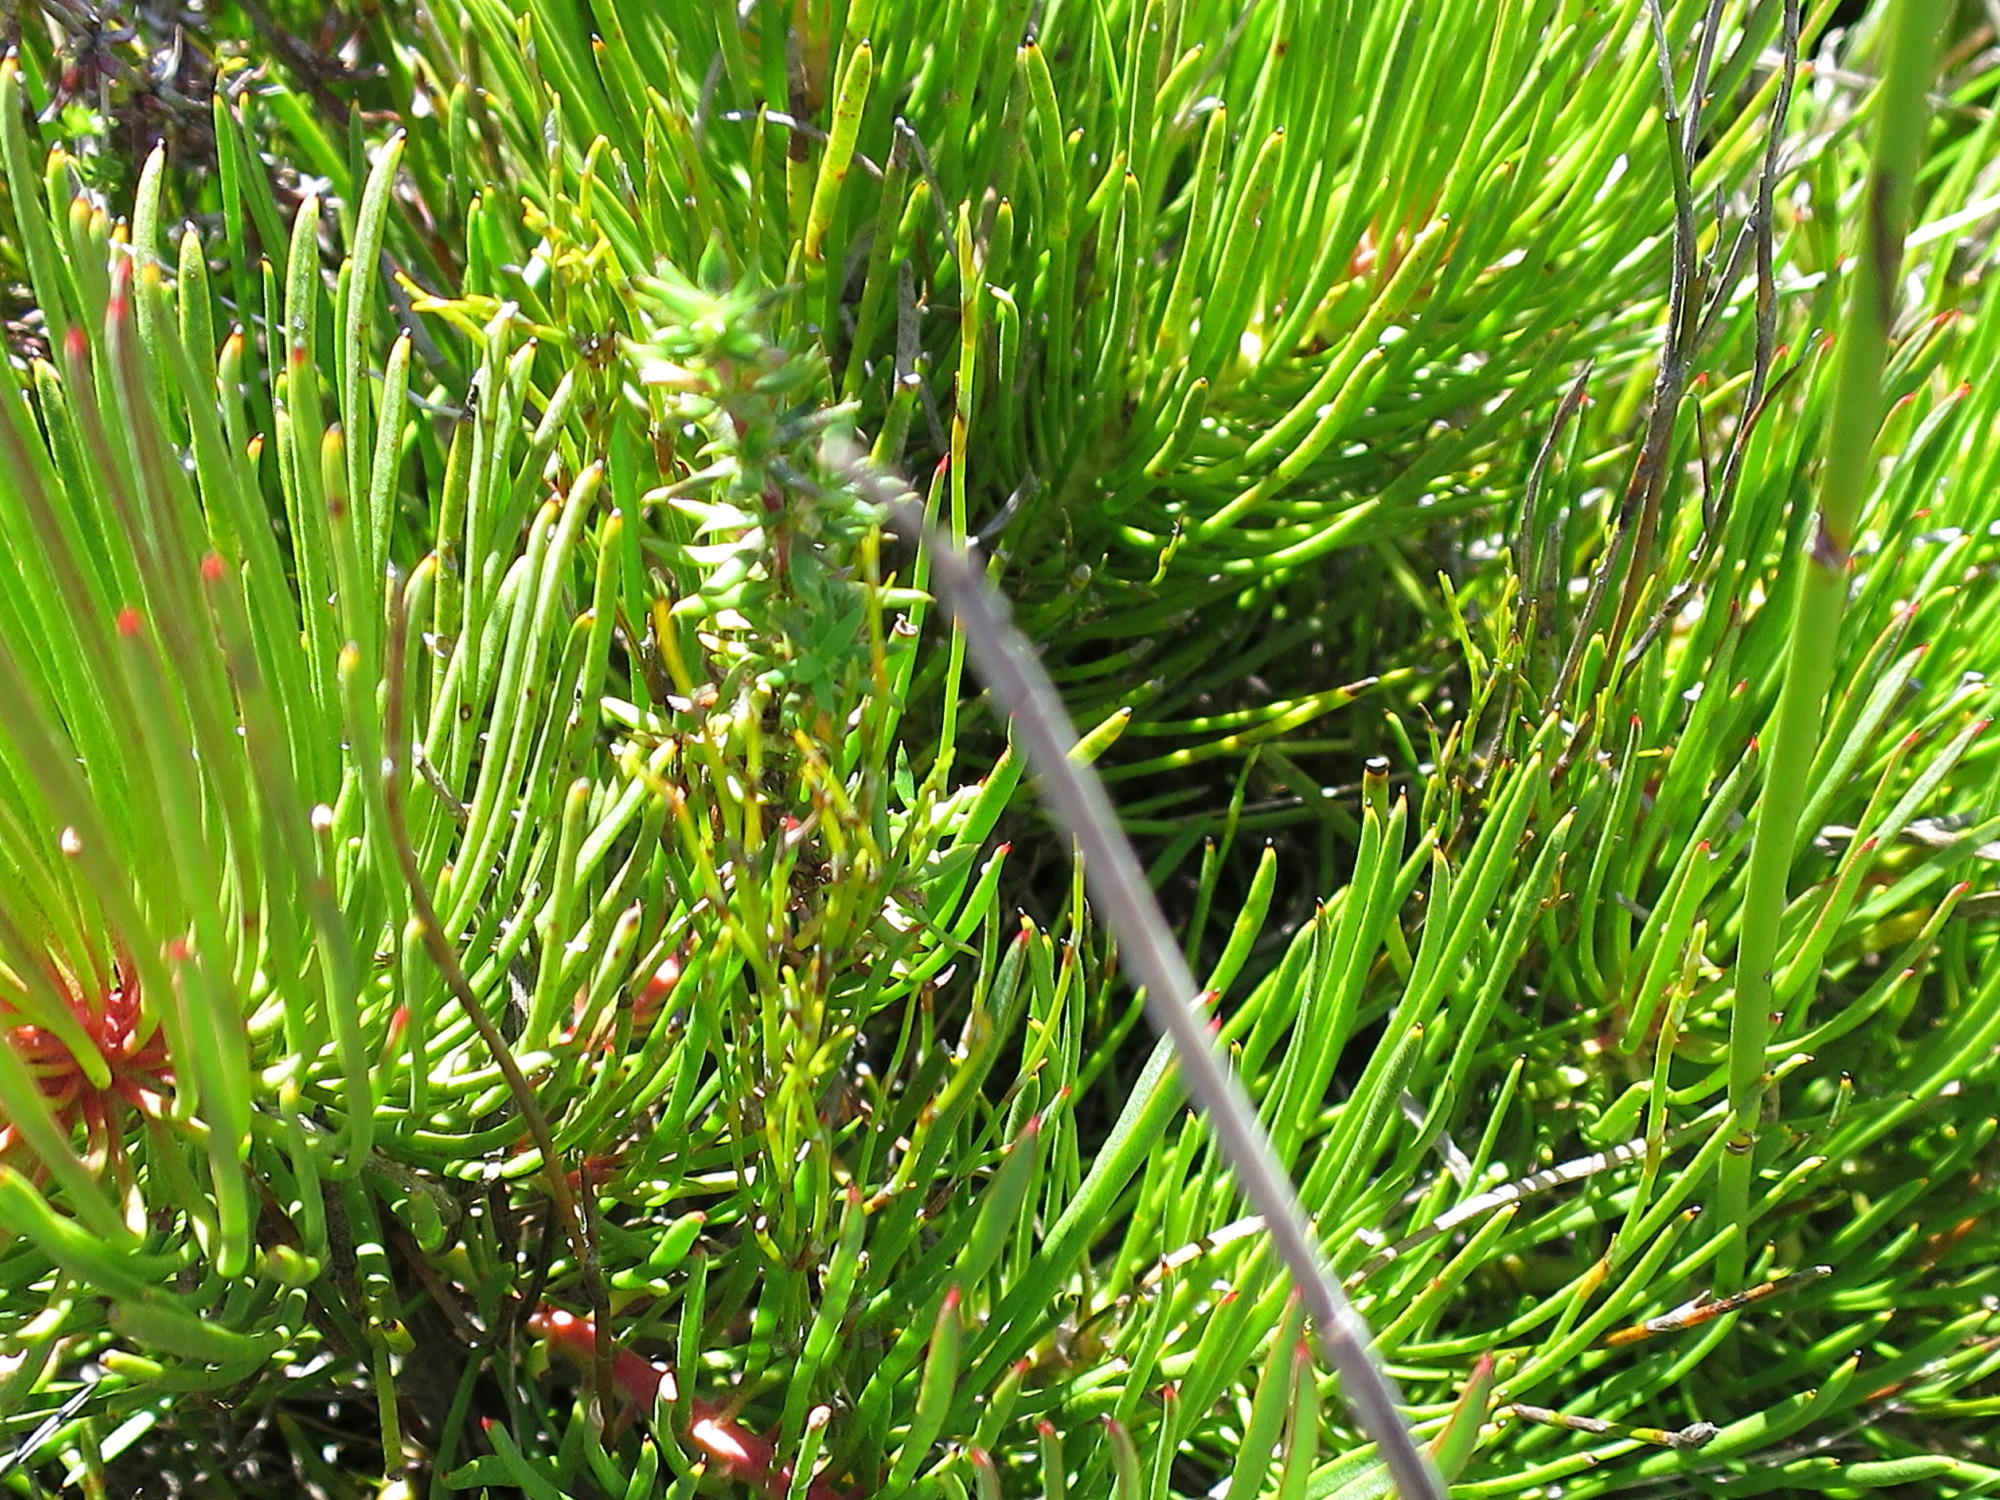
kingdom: Plantae
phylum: Tracheophyta
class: Magnoliopsida
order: Proteales
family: Proteaceae
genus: Protea
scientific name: Protea montana
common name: Swartberg sugarbush
